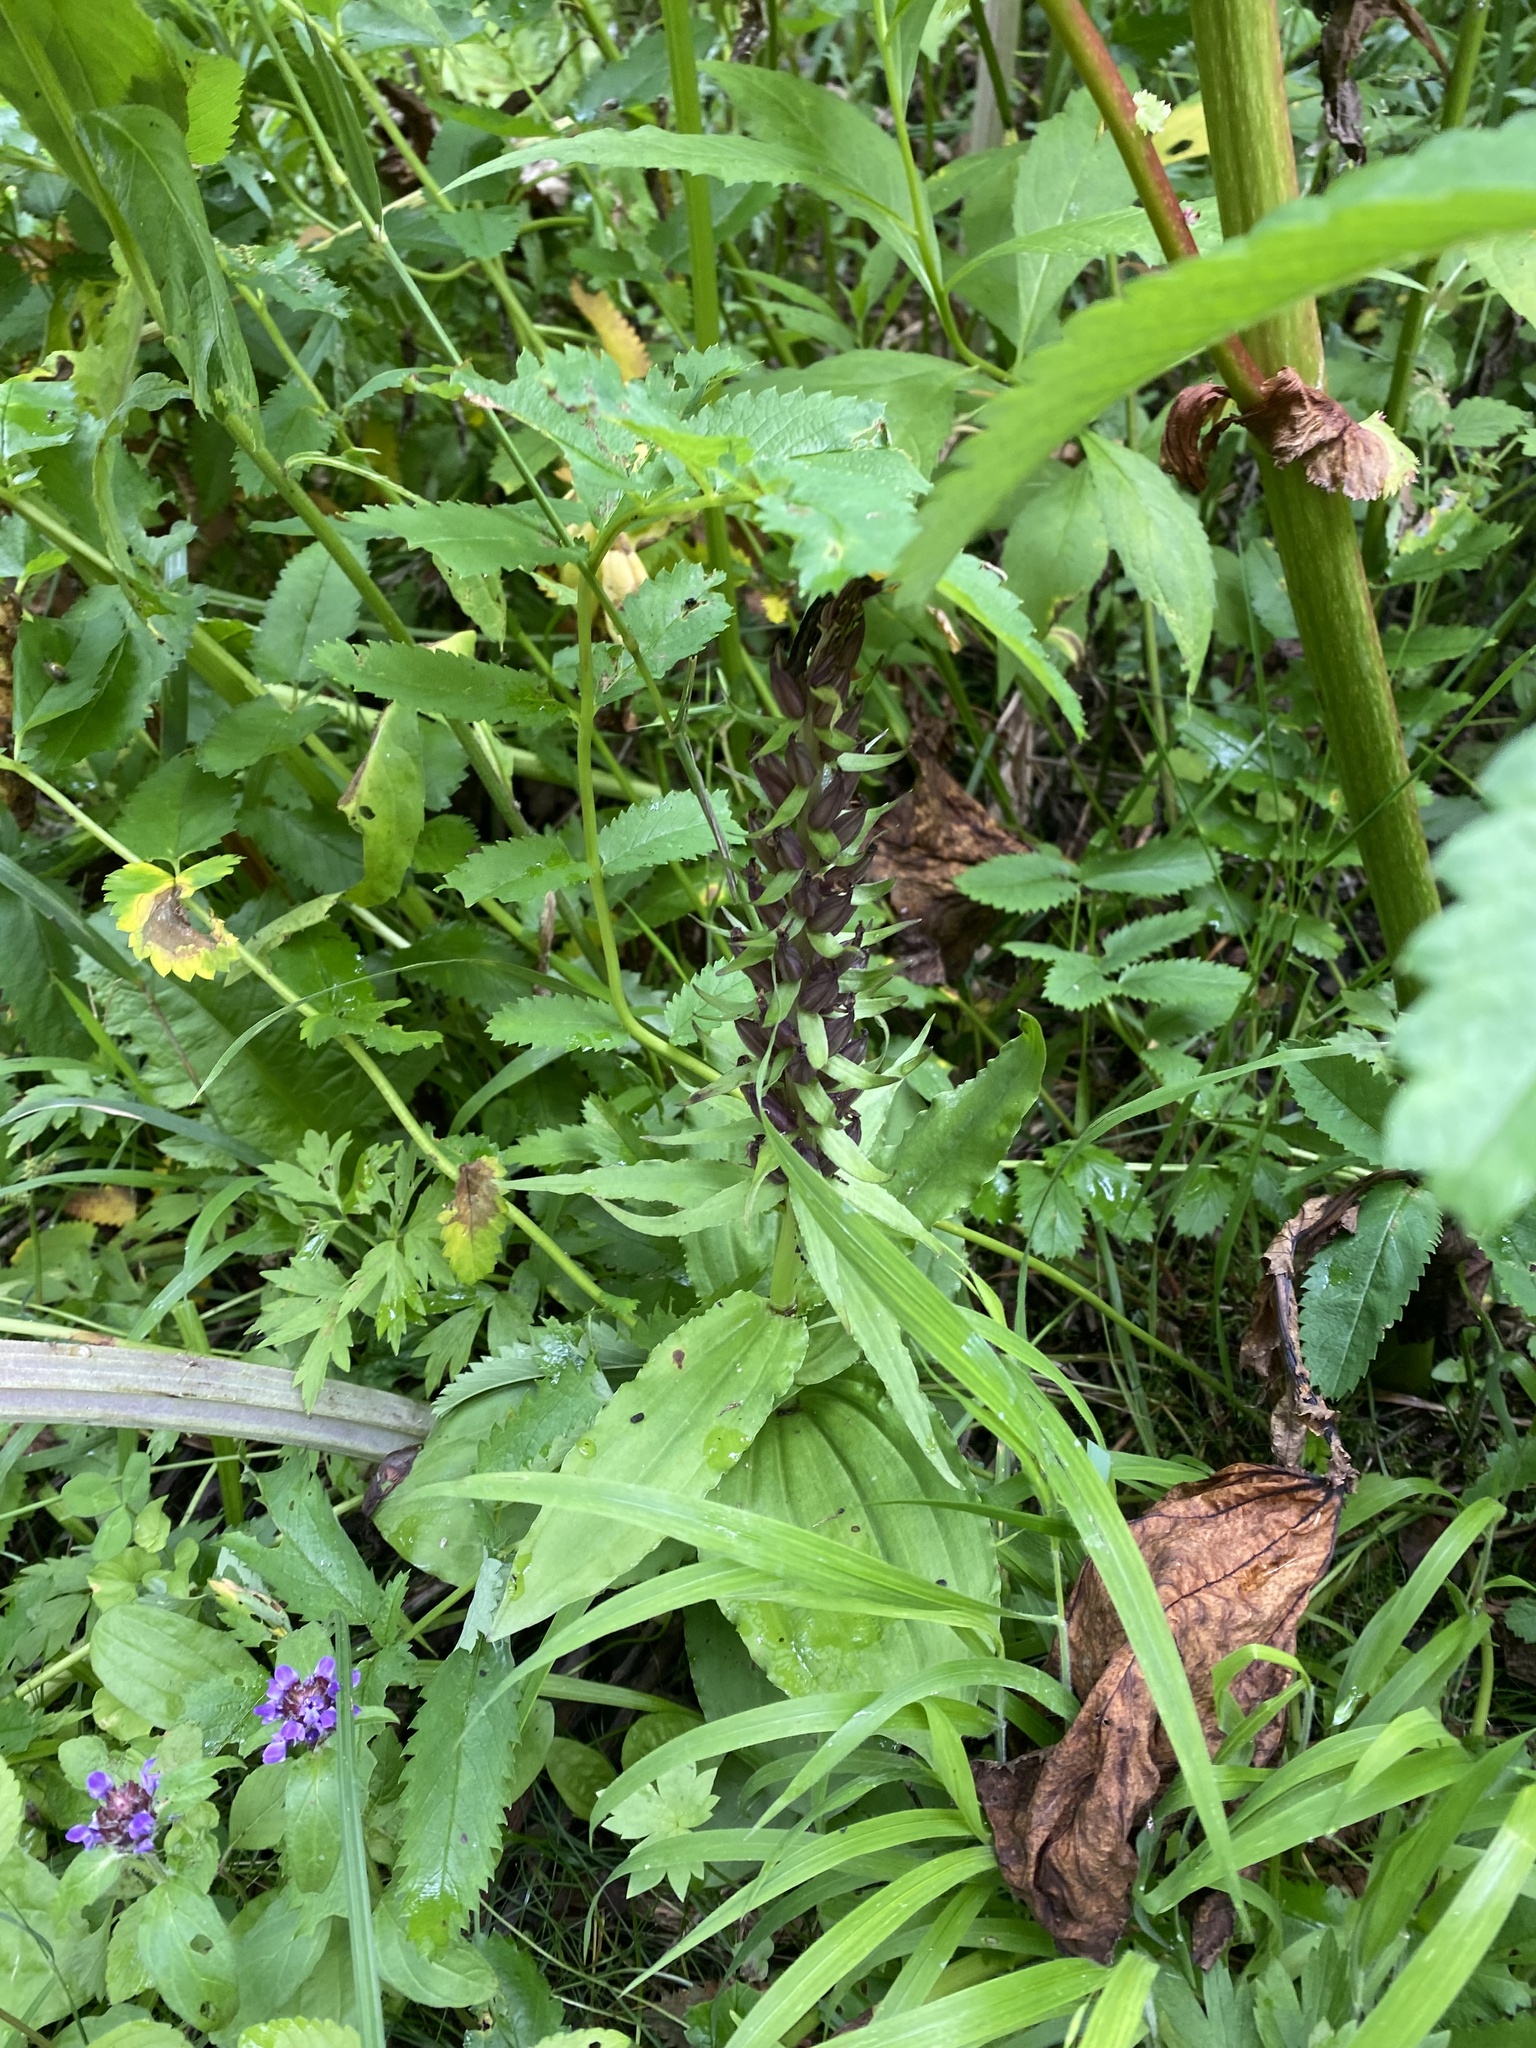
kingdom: Plantae
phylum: Tracheophyta
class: Liliopsida
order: Asparagales
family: Orchidaceae
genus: Galearis
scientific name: Galearis camtschatica
